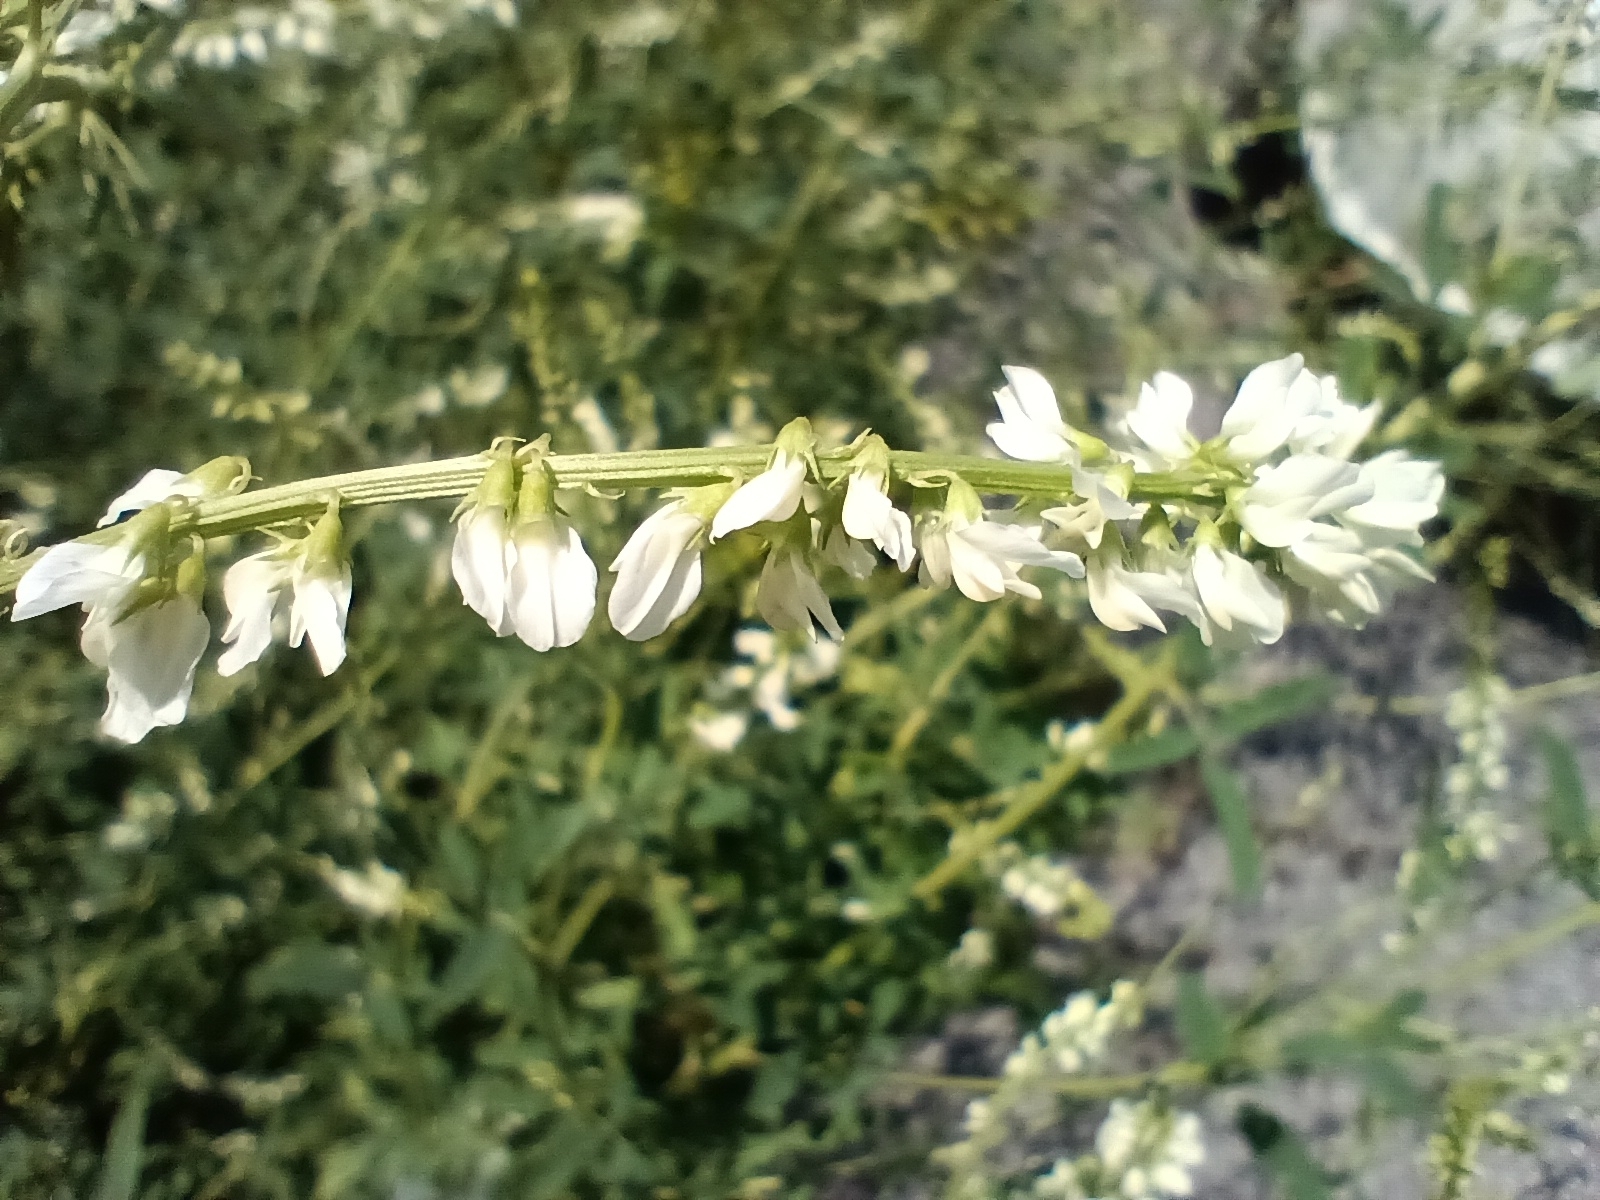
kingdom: Plantae
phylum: Tracheophyta
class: Magnoliopsida
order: Fabales
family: Fabaceae
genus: Melilotus
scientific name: Melilotus albus
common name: White melilot
